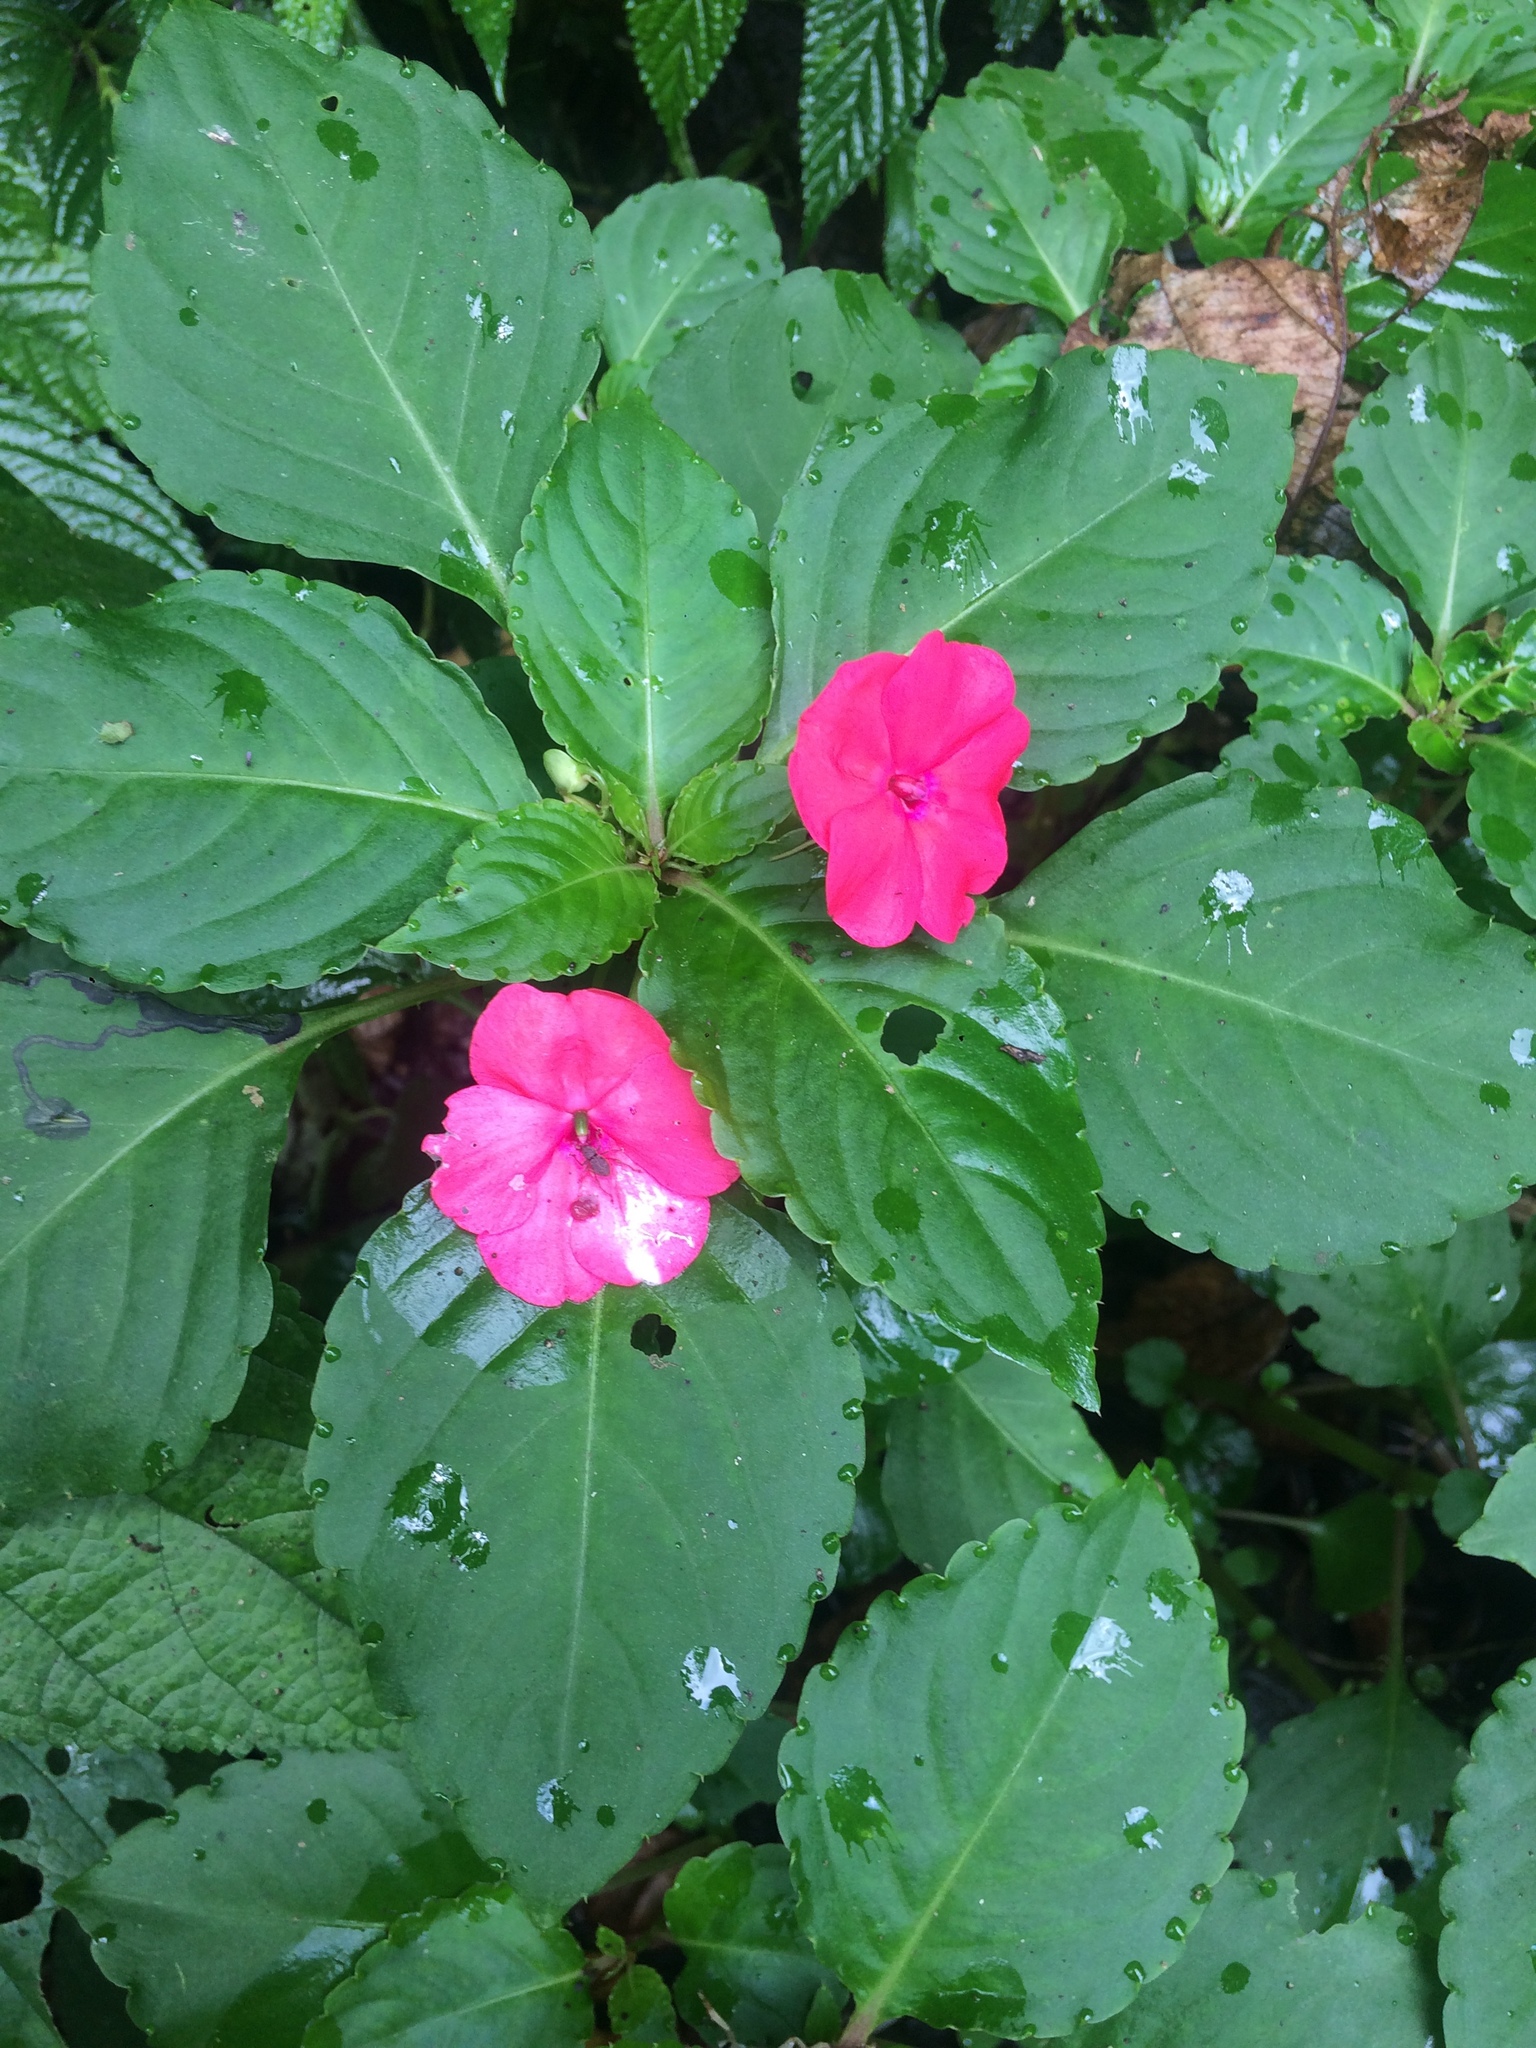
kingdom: Plantae
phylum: Tracheophyta
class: Magnoliopsida
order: Ericales
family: Balsaminaceae
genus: Impatiens
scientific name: Impatiens walleriana
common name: Buzzy lizzy
